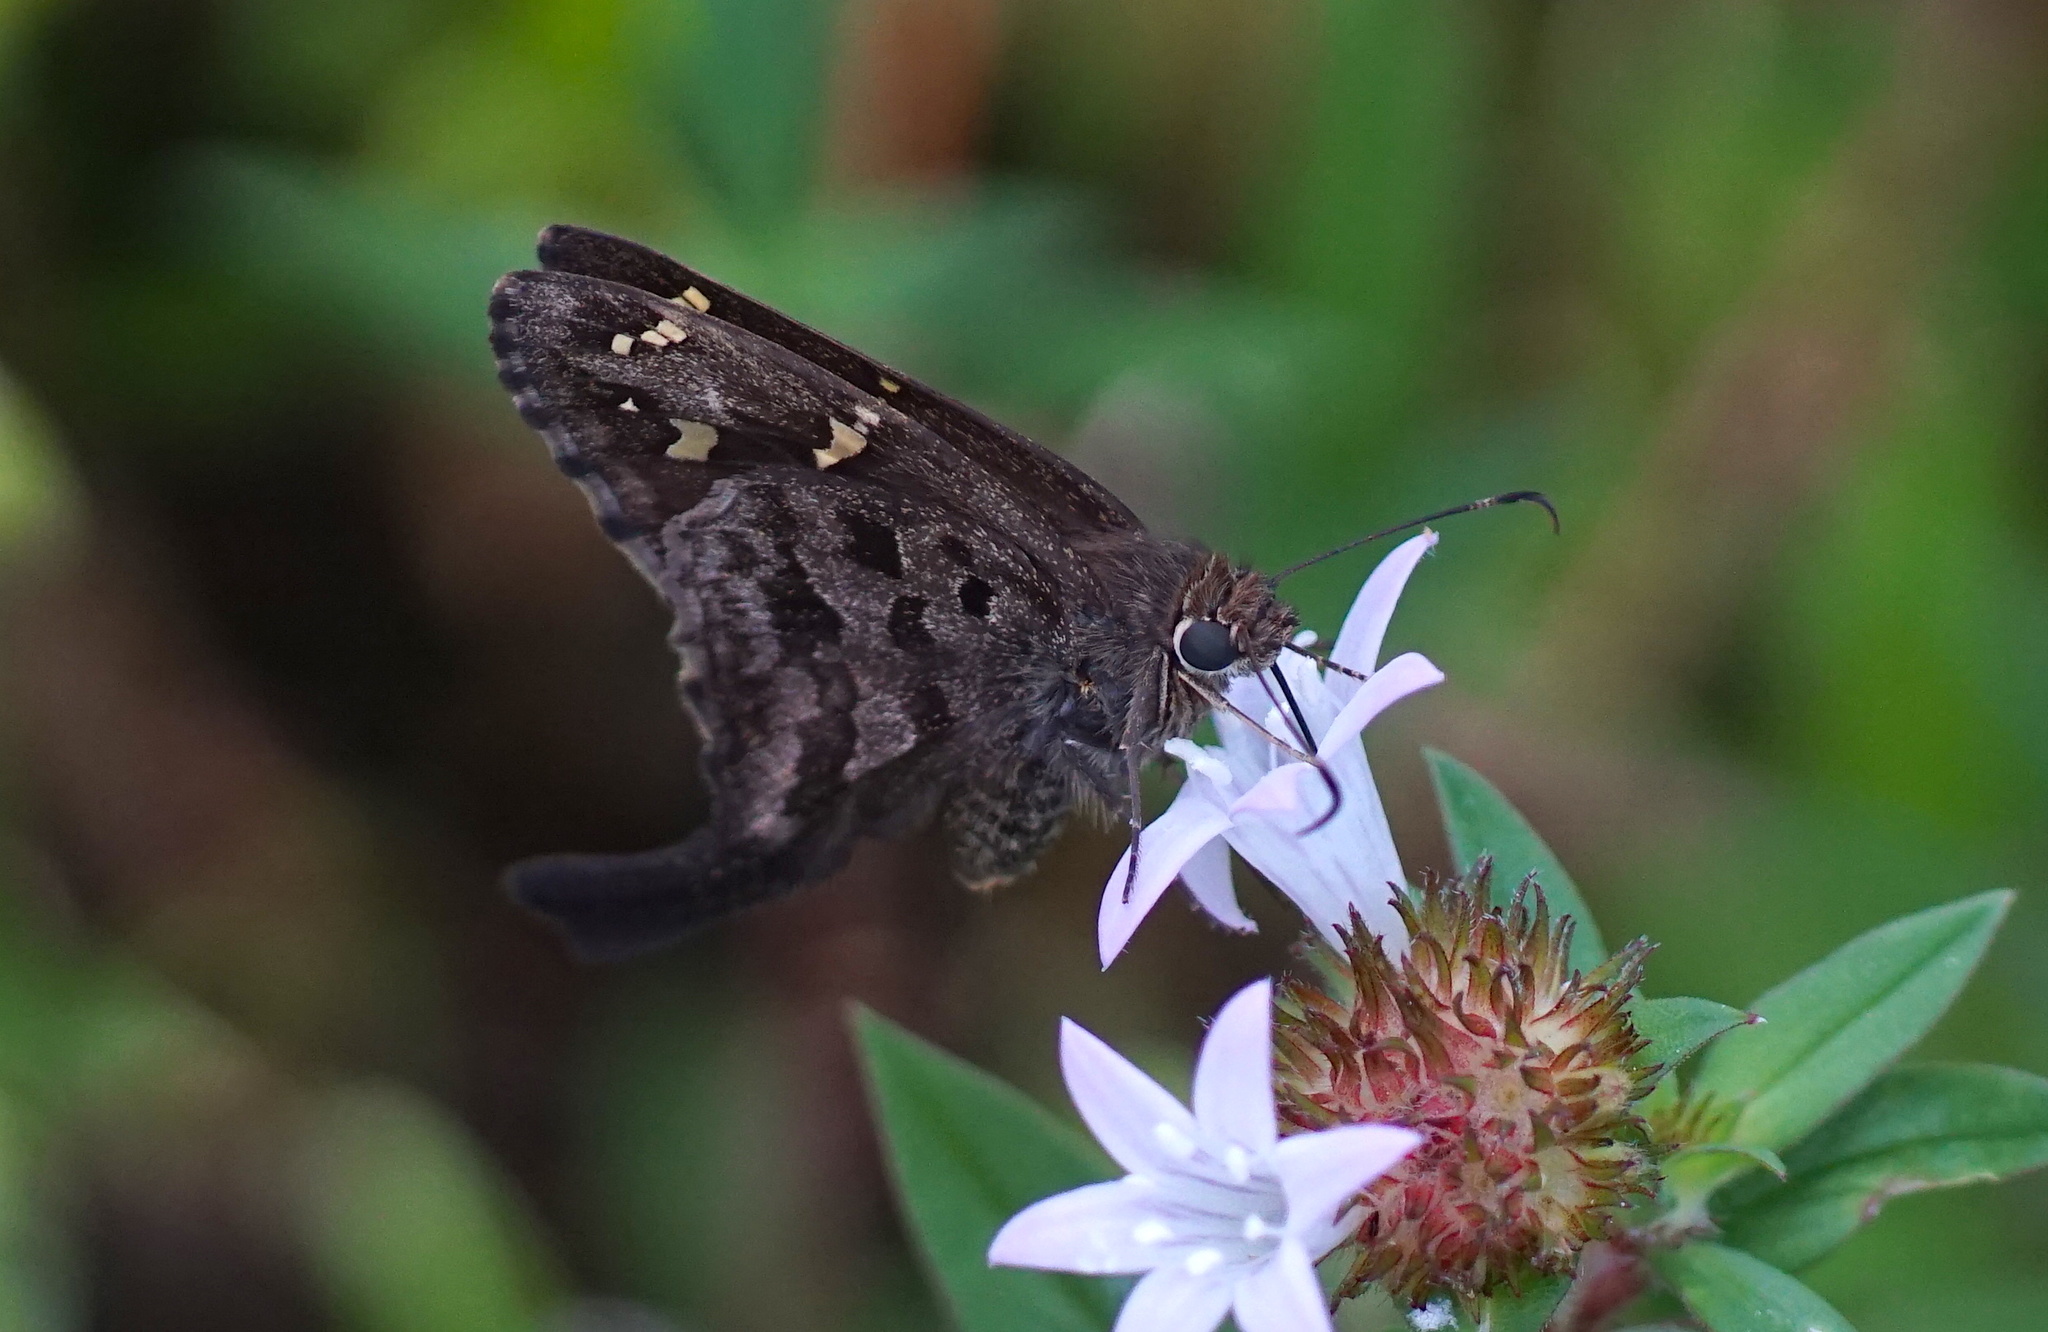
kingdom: Animalia
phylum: Arthropoda
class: Insecta
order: Lepidoptera
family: Hesperiidae
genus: Thorybes
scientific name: Thorybes
